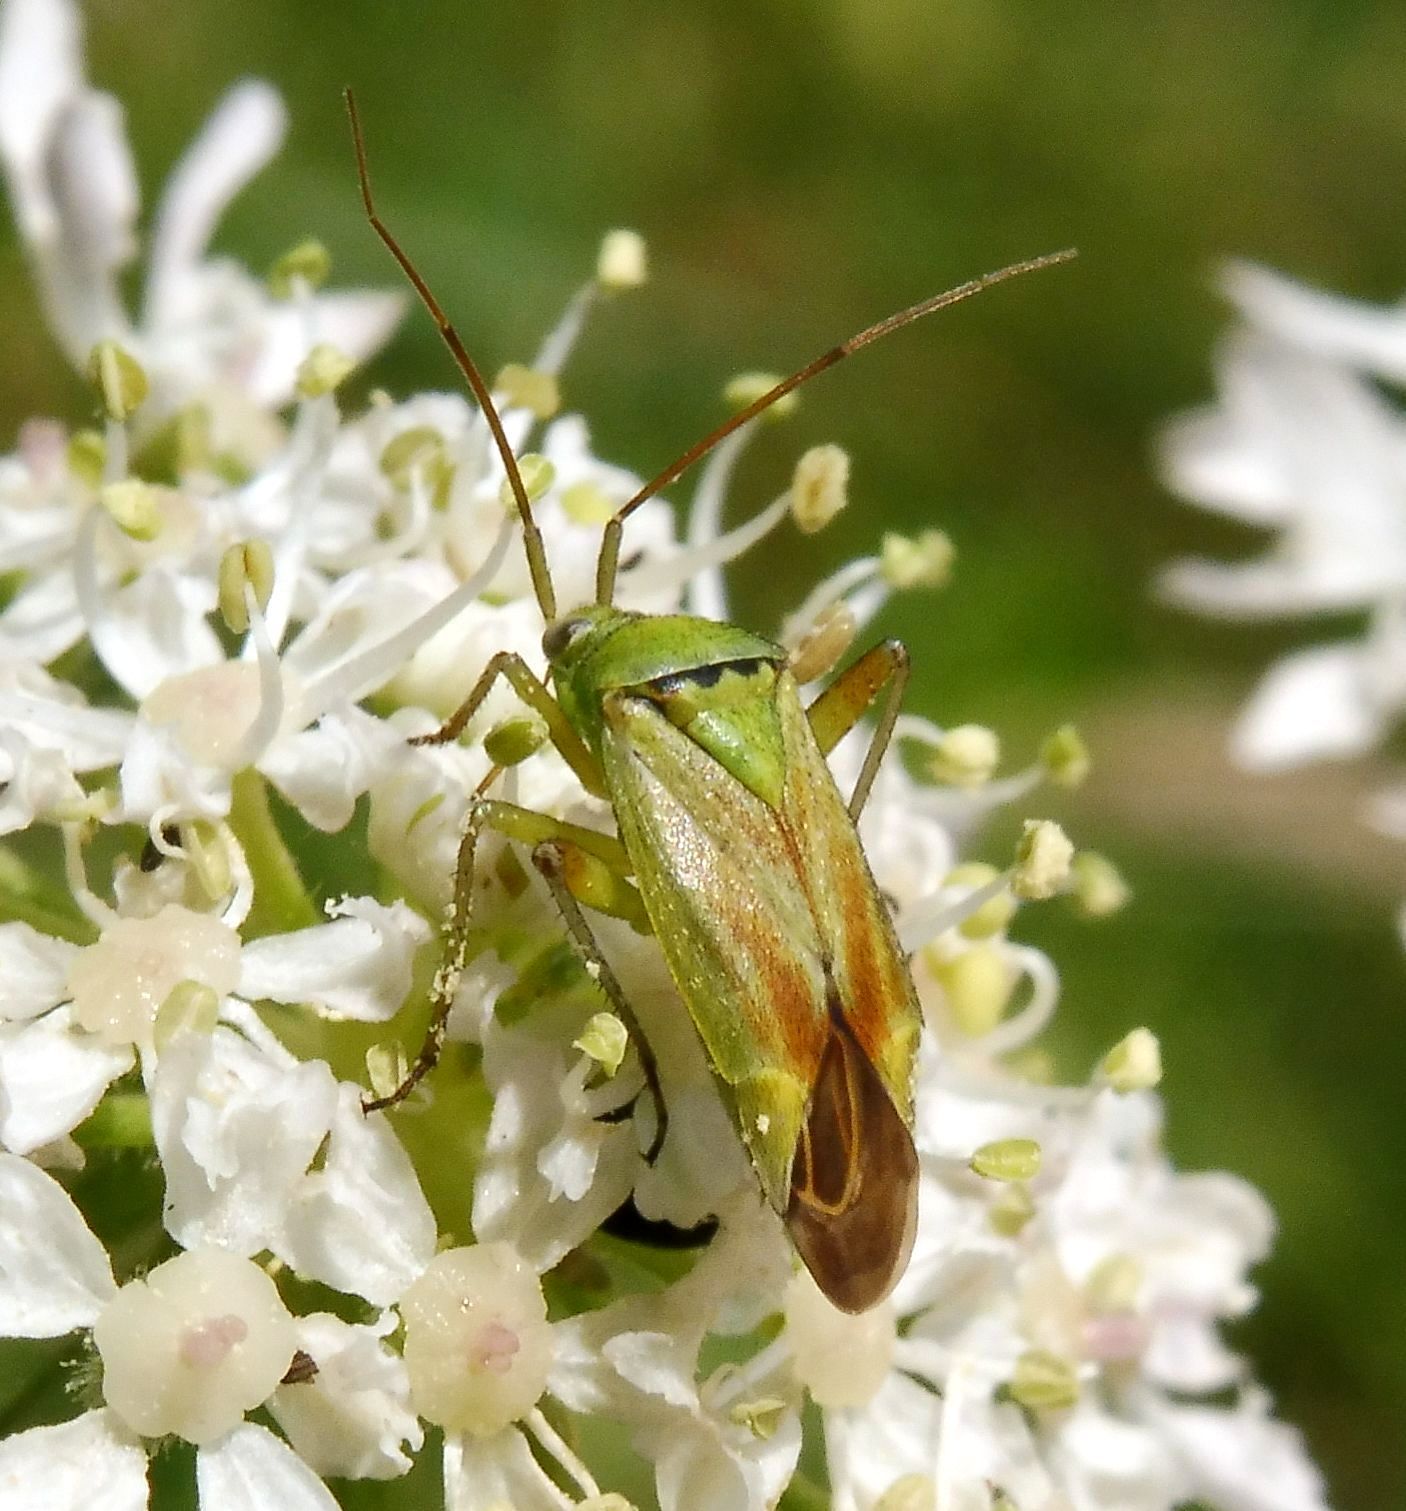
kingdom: Animalia
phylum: Arthropoda
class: Insecta
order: Hemiptera
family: Miridae
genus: Closterotomus
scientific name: Closterotomus norvegicus
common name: Plant bug
